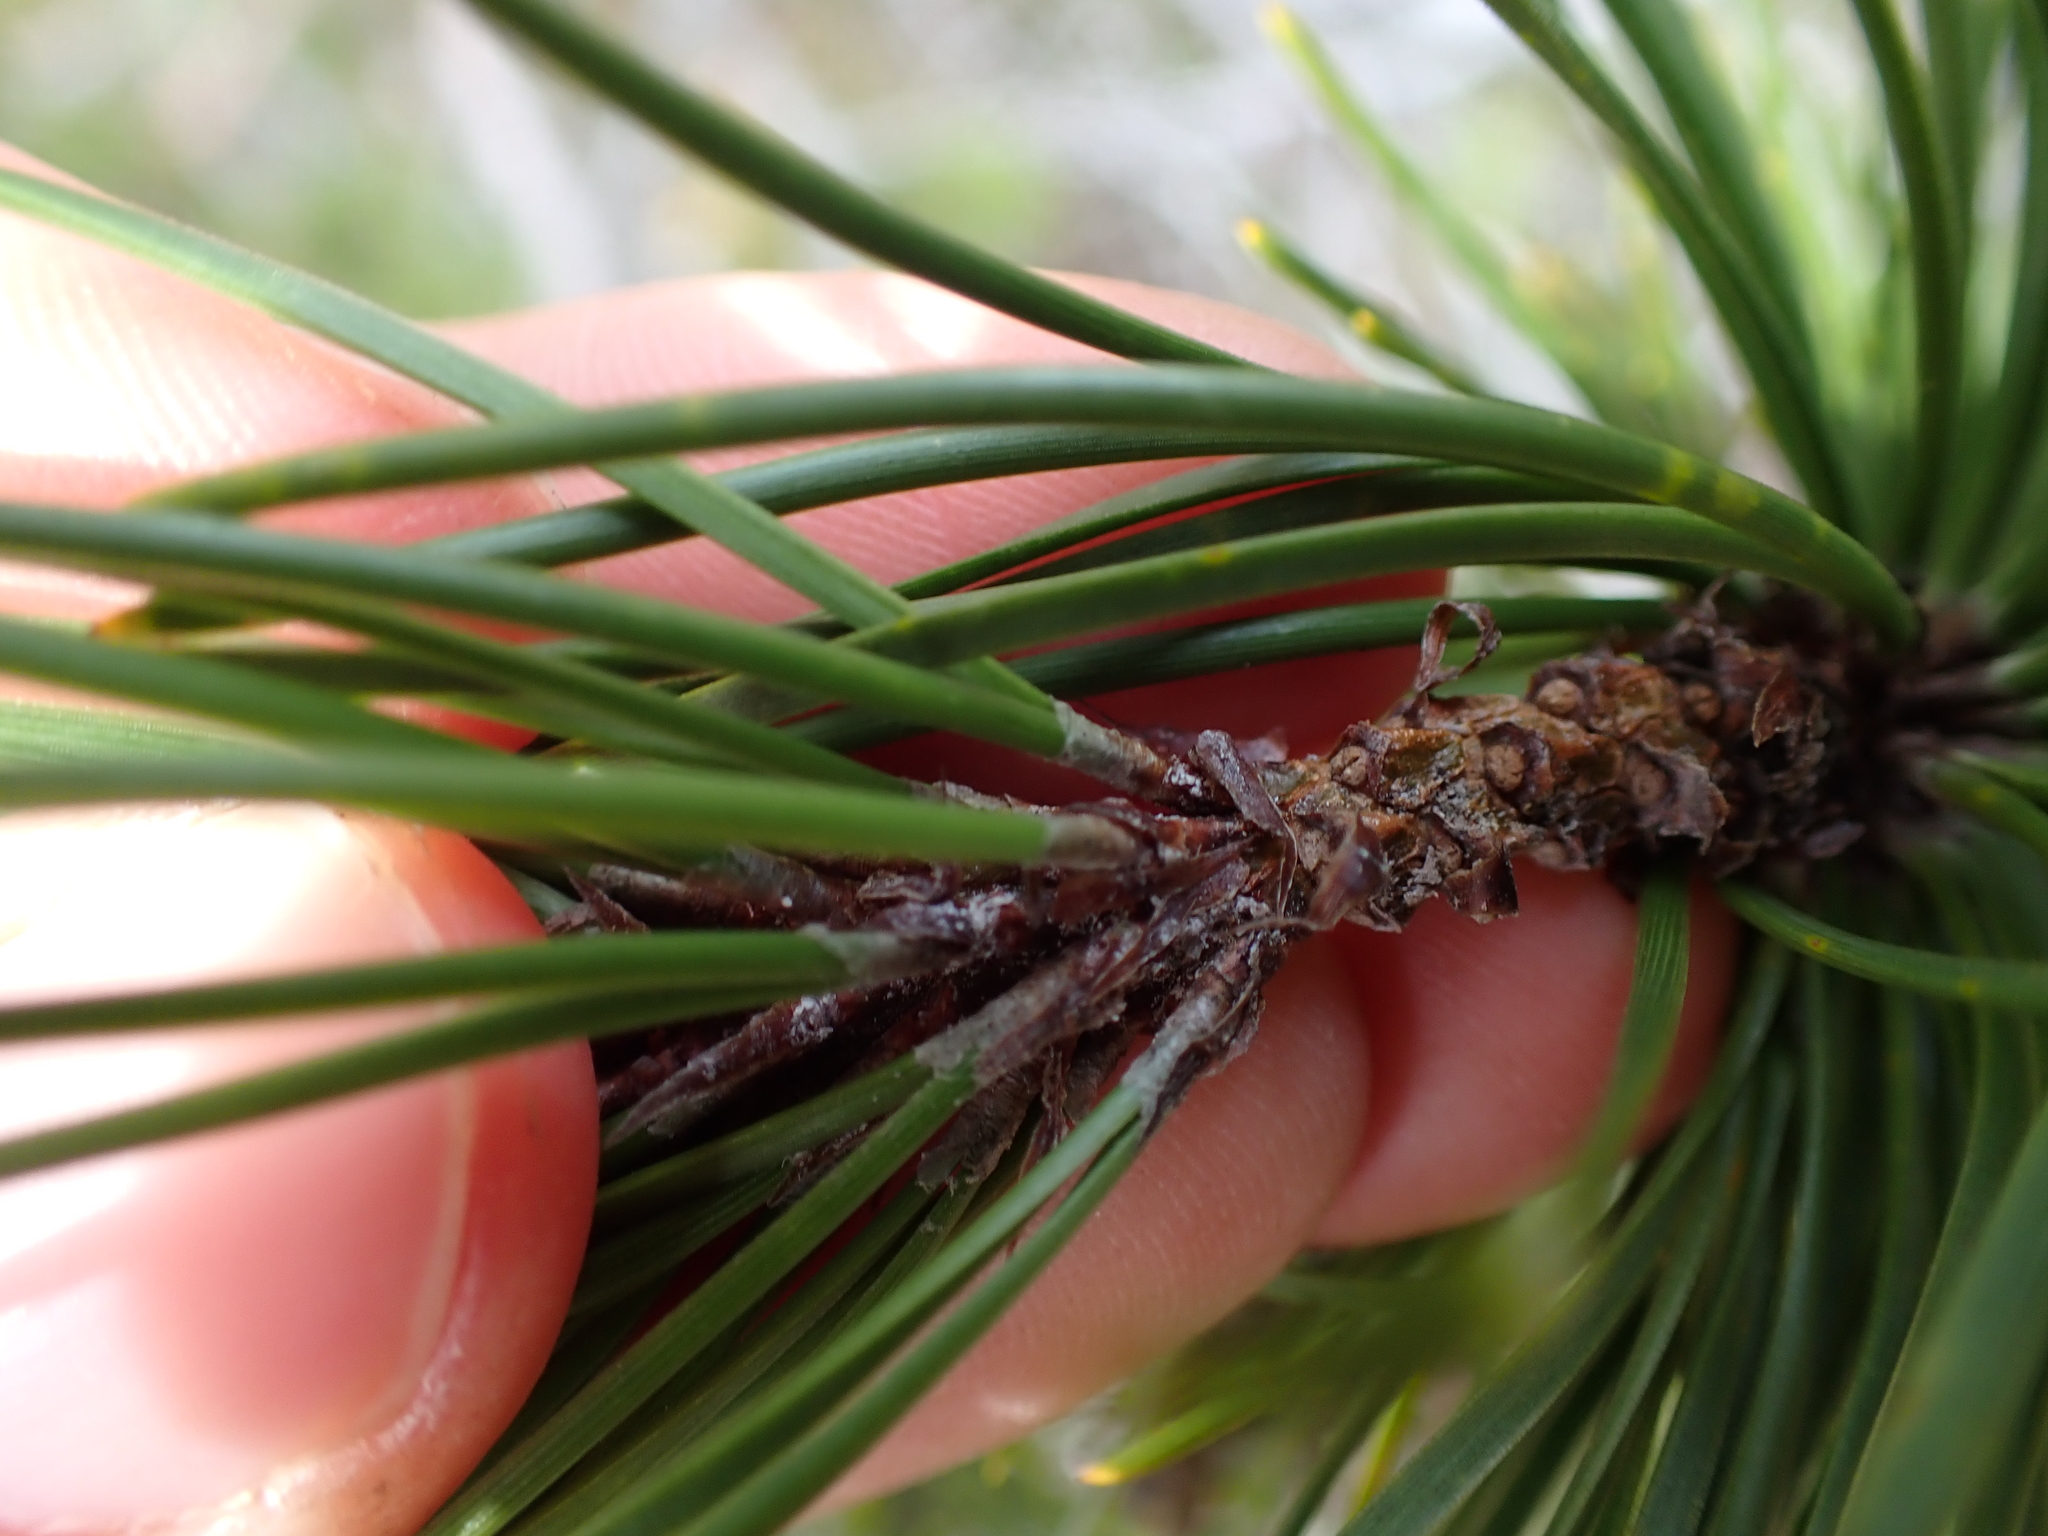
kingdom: Plantae
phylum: Tracheophyta
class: Pinopsida
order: Pinales
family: Pinaceae
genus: Pinus
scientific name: Pinus contorta
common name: Lodgepole pine
